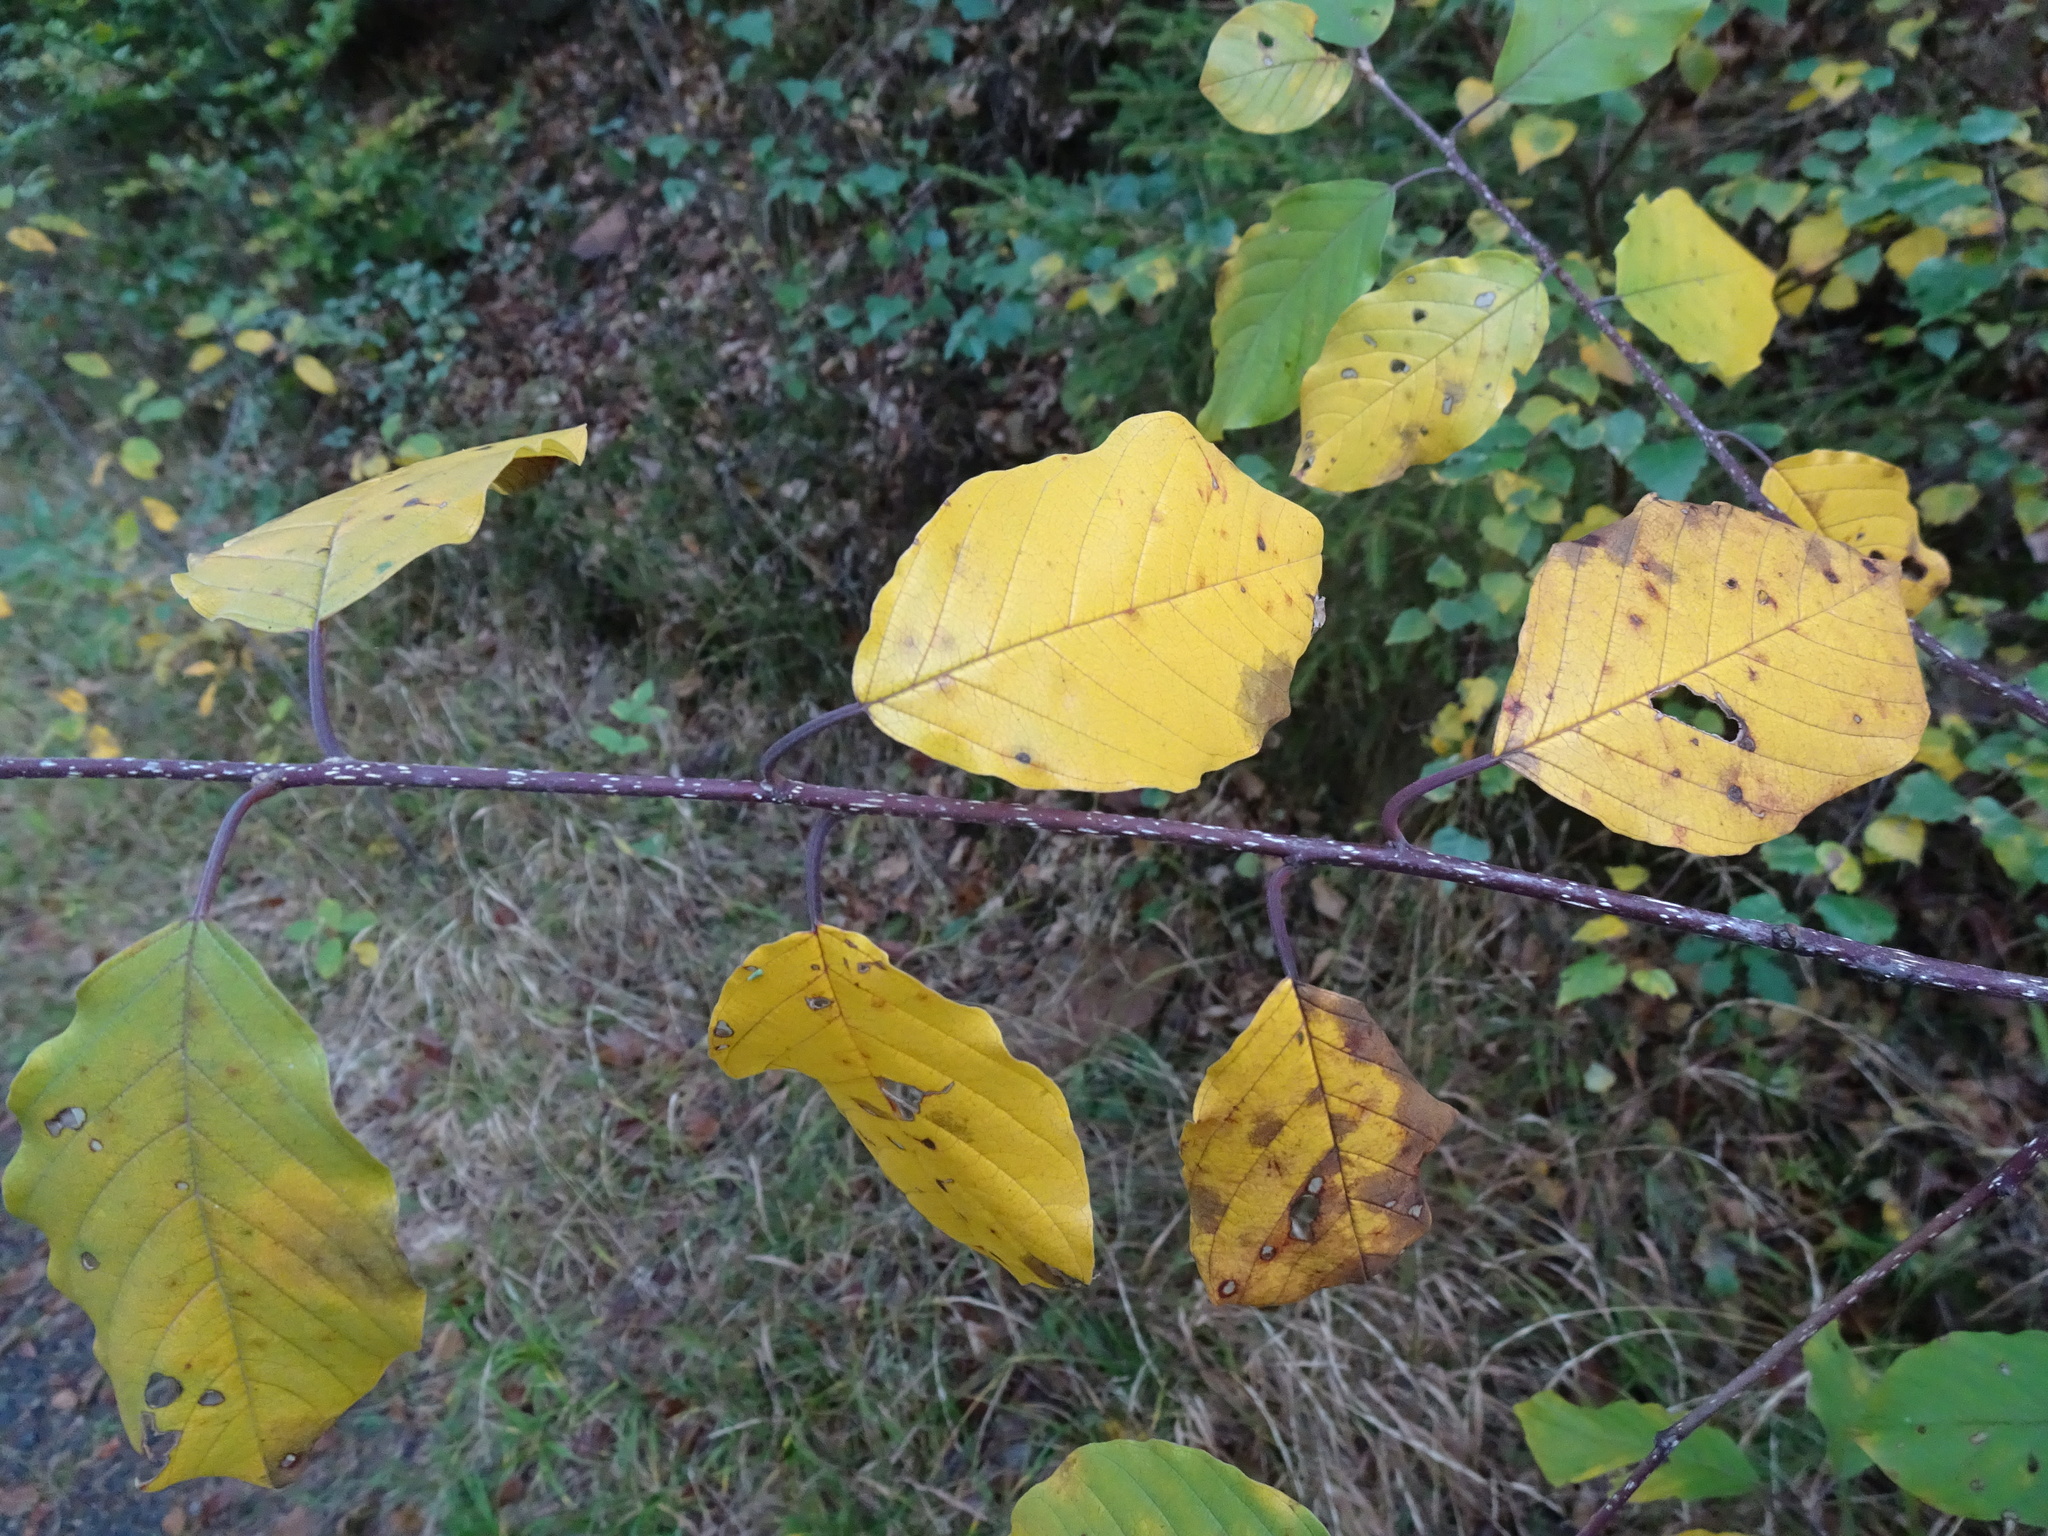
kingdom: Plantae
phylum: Tracheophyta
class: Magnoliopsida
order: Rosales
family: Rhamnaceae
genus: Frangula
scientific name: Frangula alnus
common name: Alder buckthorn
